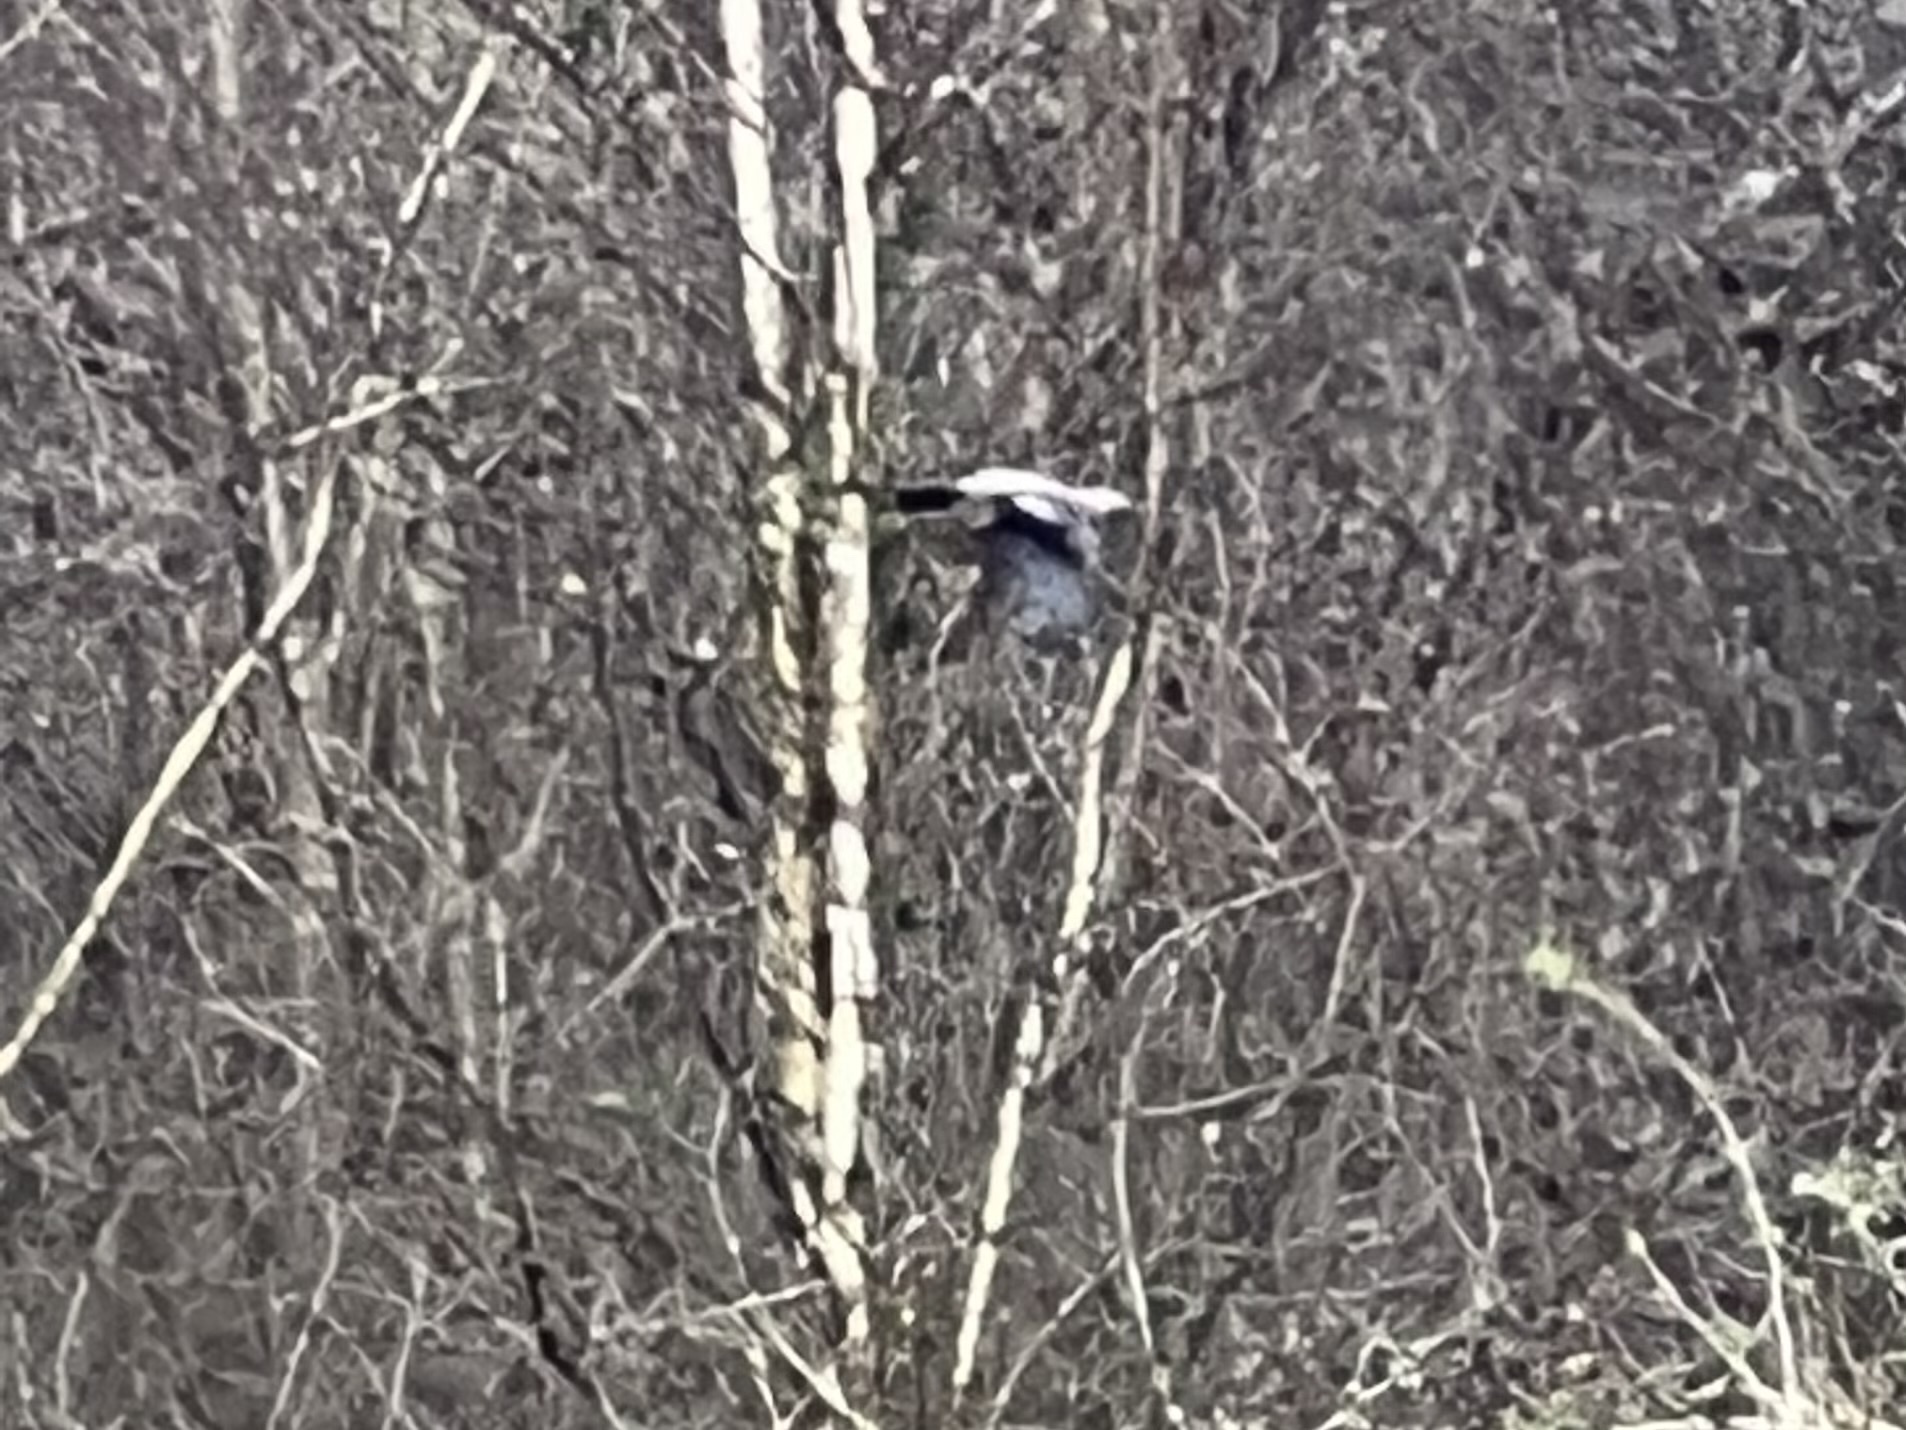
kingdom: Animalia
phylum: Chordata
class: Aves
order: Passeriformes
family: Corvidae
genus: Garrulus
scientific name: Garrulus glandarius
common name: Eurasian jay
